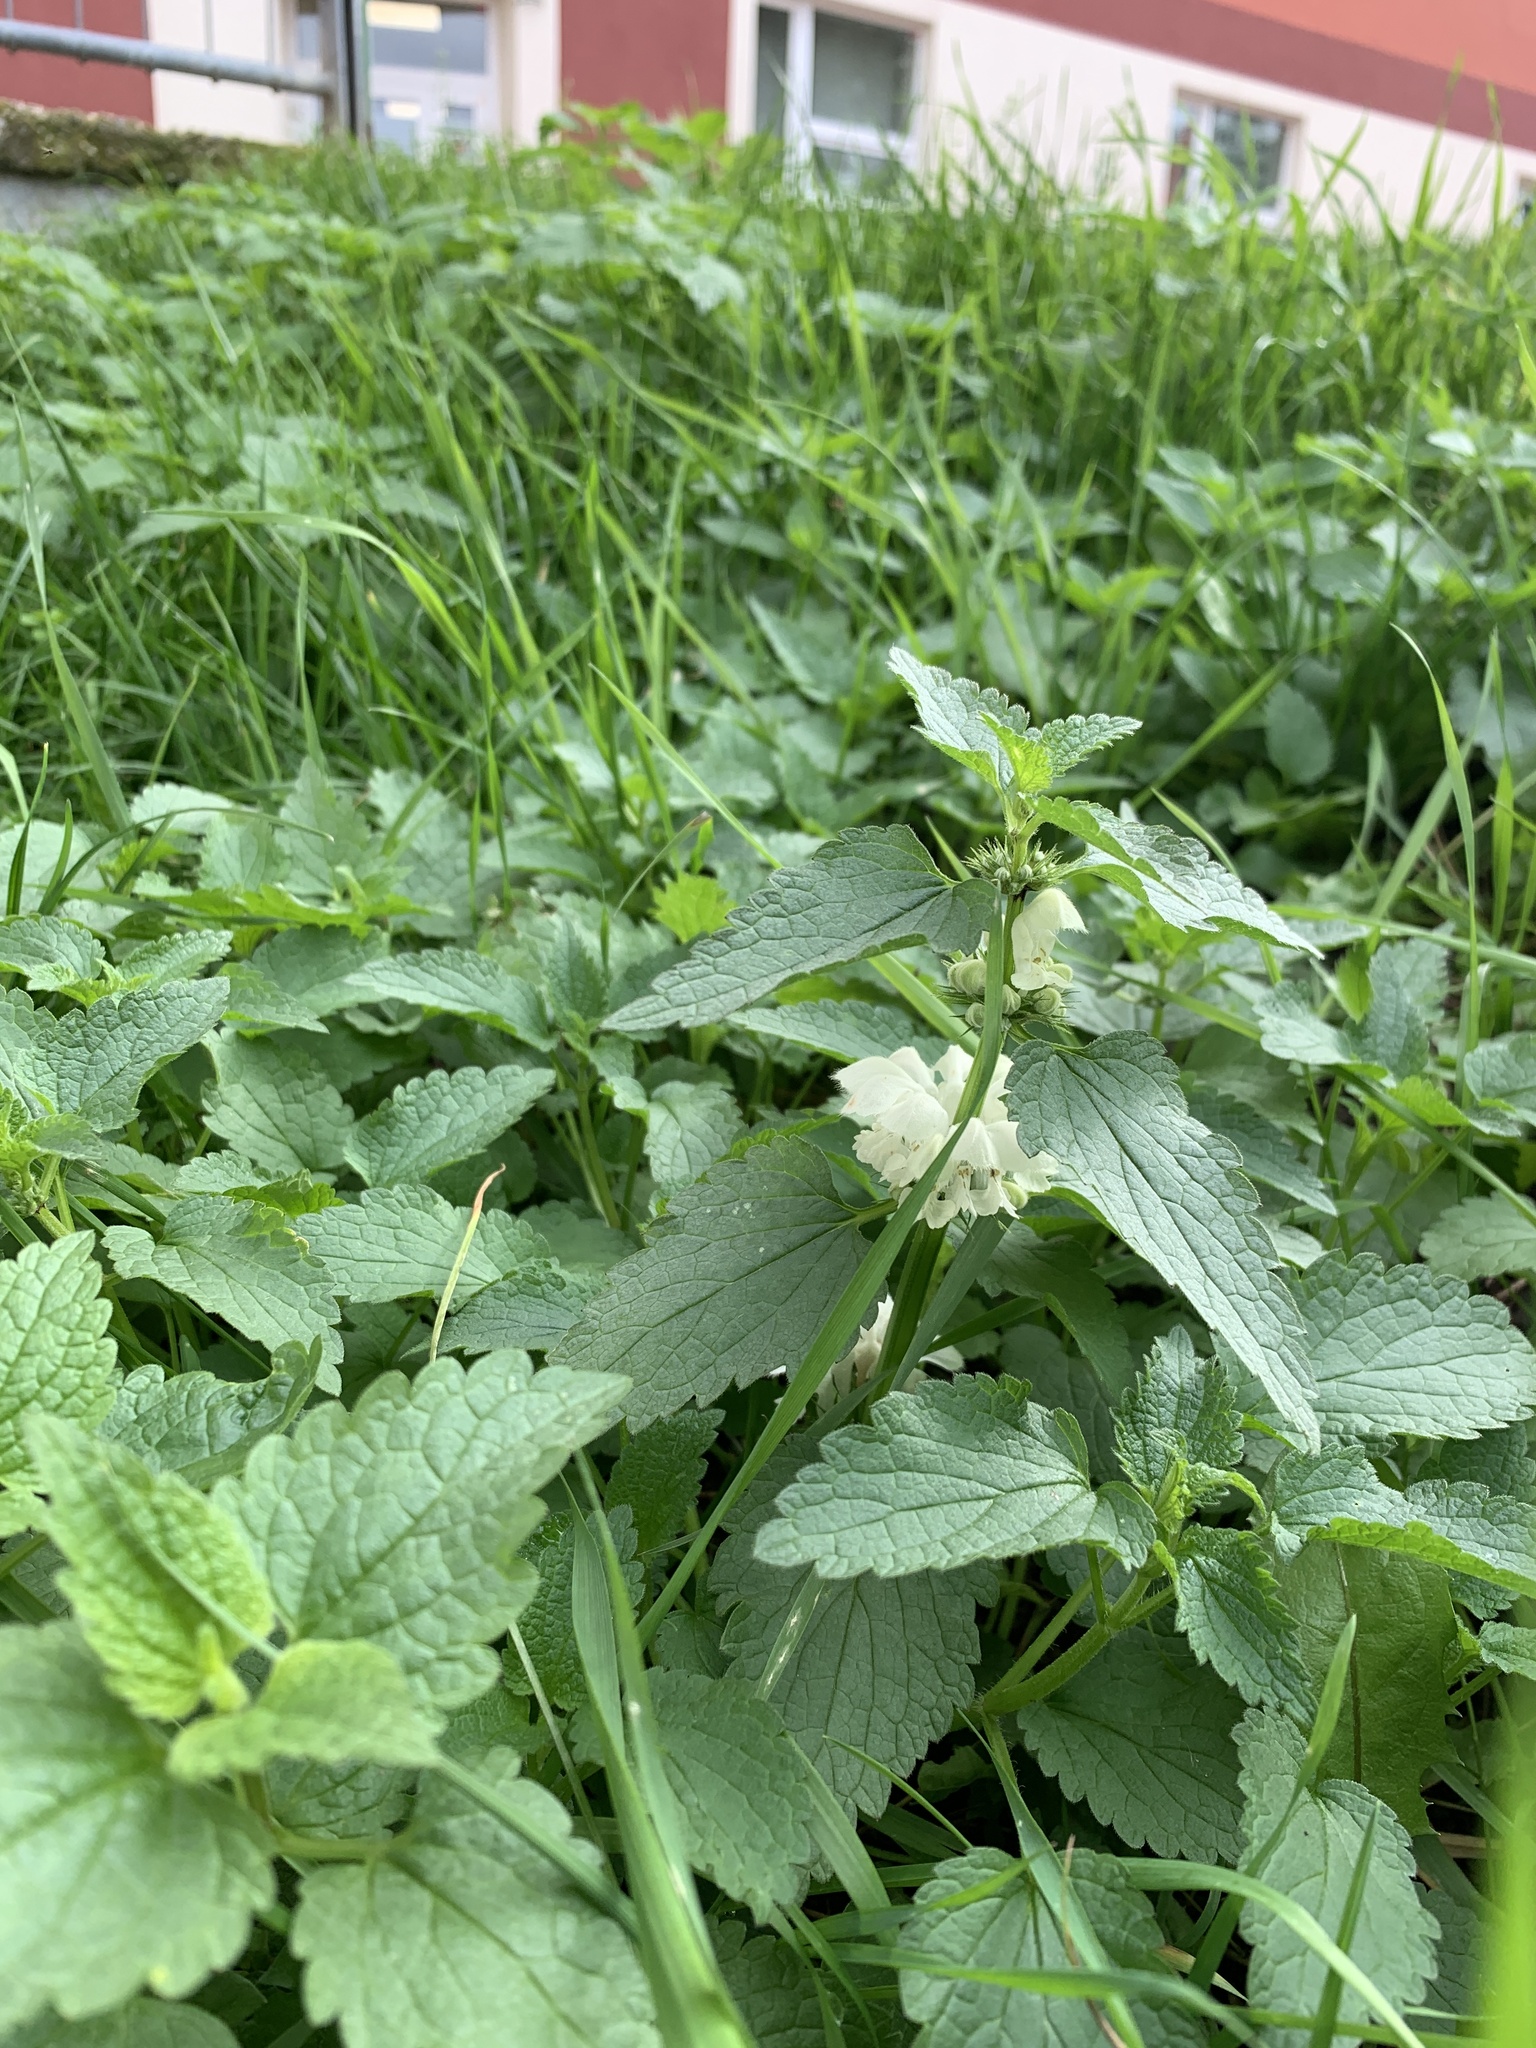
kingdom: Plantae
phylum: Tracheophyta
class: Magnoliopsida
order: Lamiales
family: Lamiaceae
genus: Lamium
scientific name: Lamium album
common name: White dead-nettle
